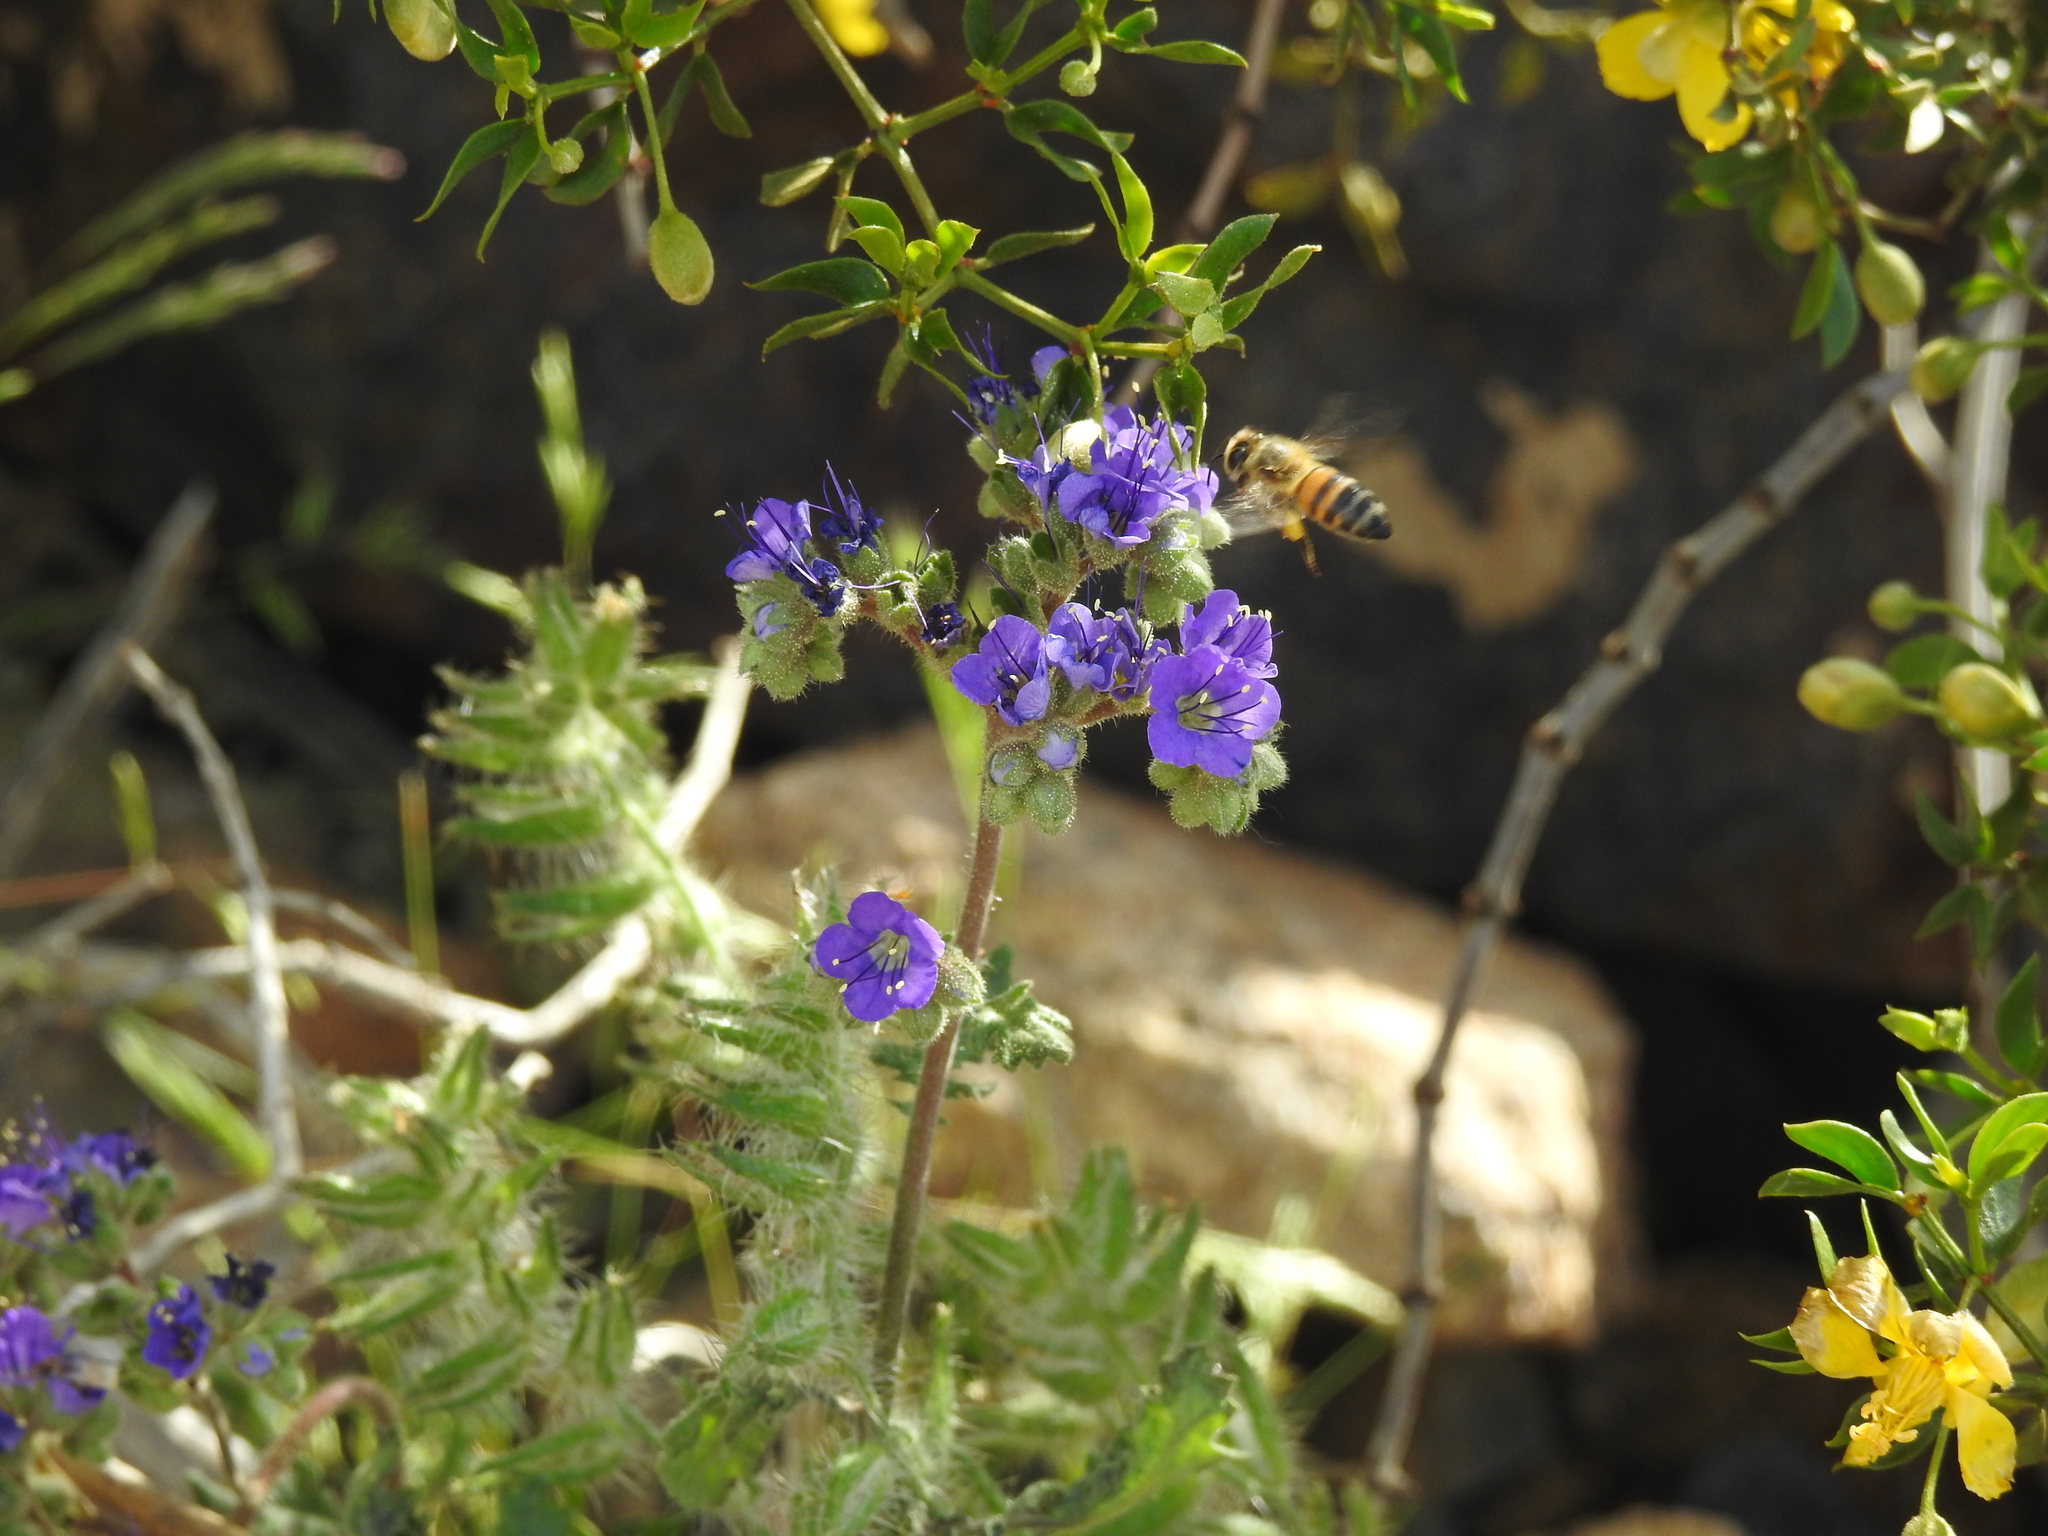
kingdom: Animalia
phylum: Arthropoda
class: Insecta
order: Hymenoptera
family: Apidae
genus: Apis
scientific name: Apis mellifera
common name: Honey bee
